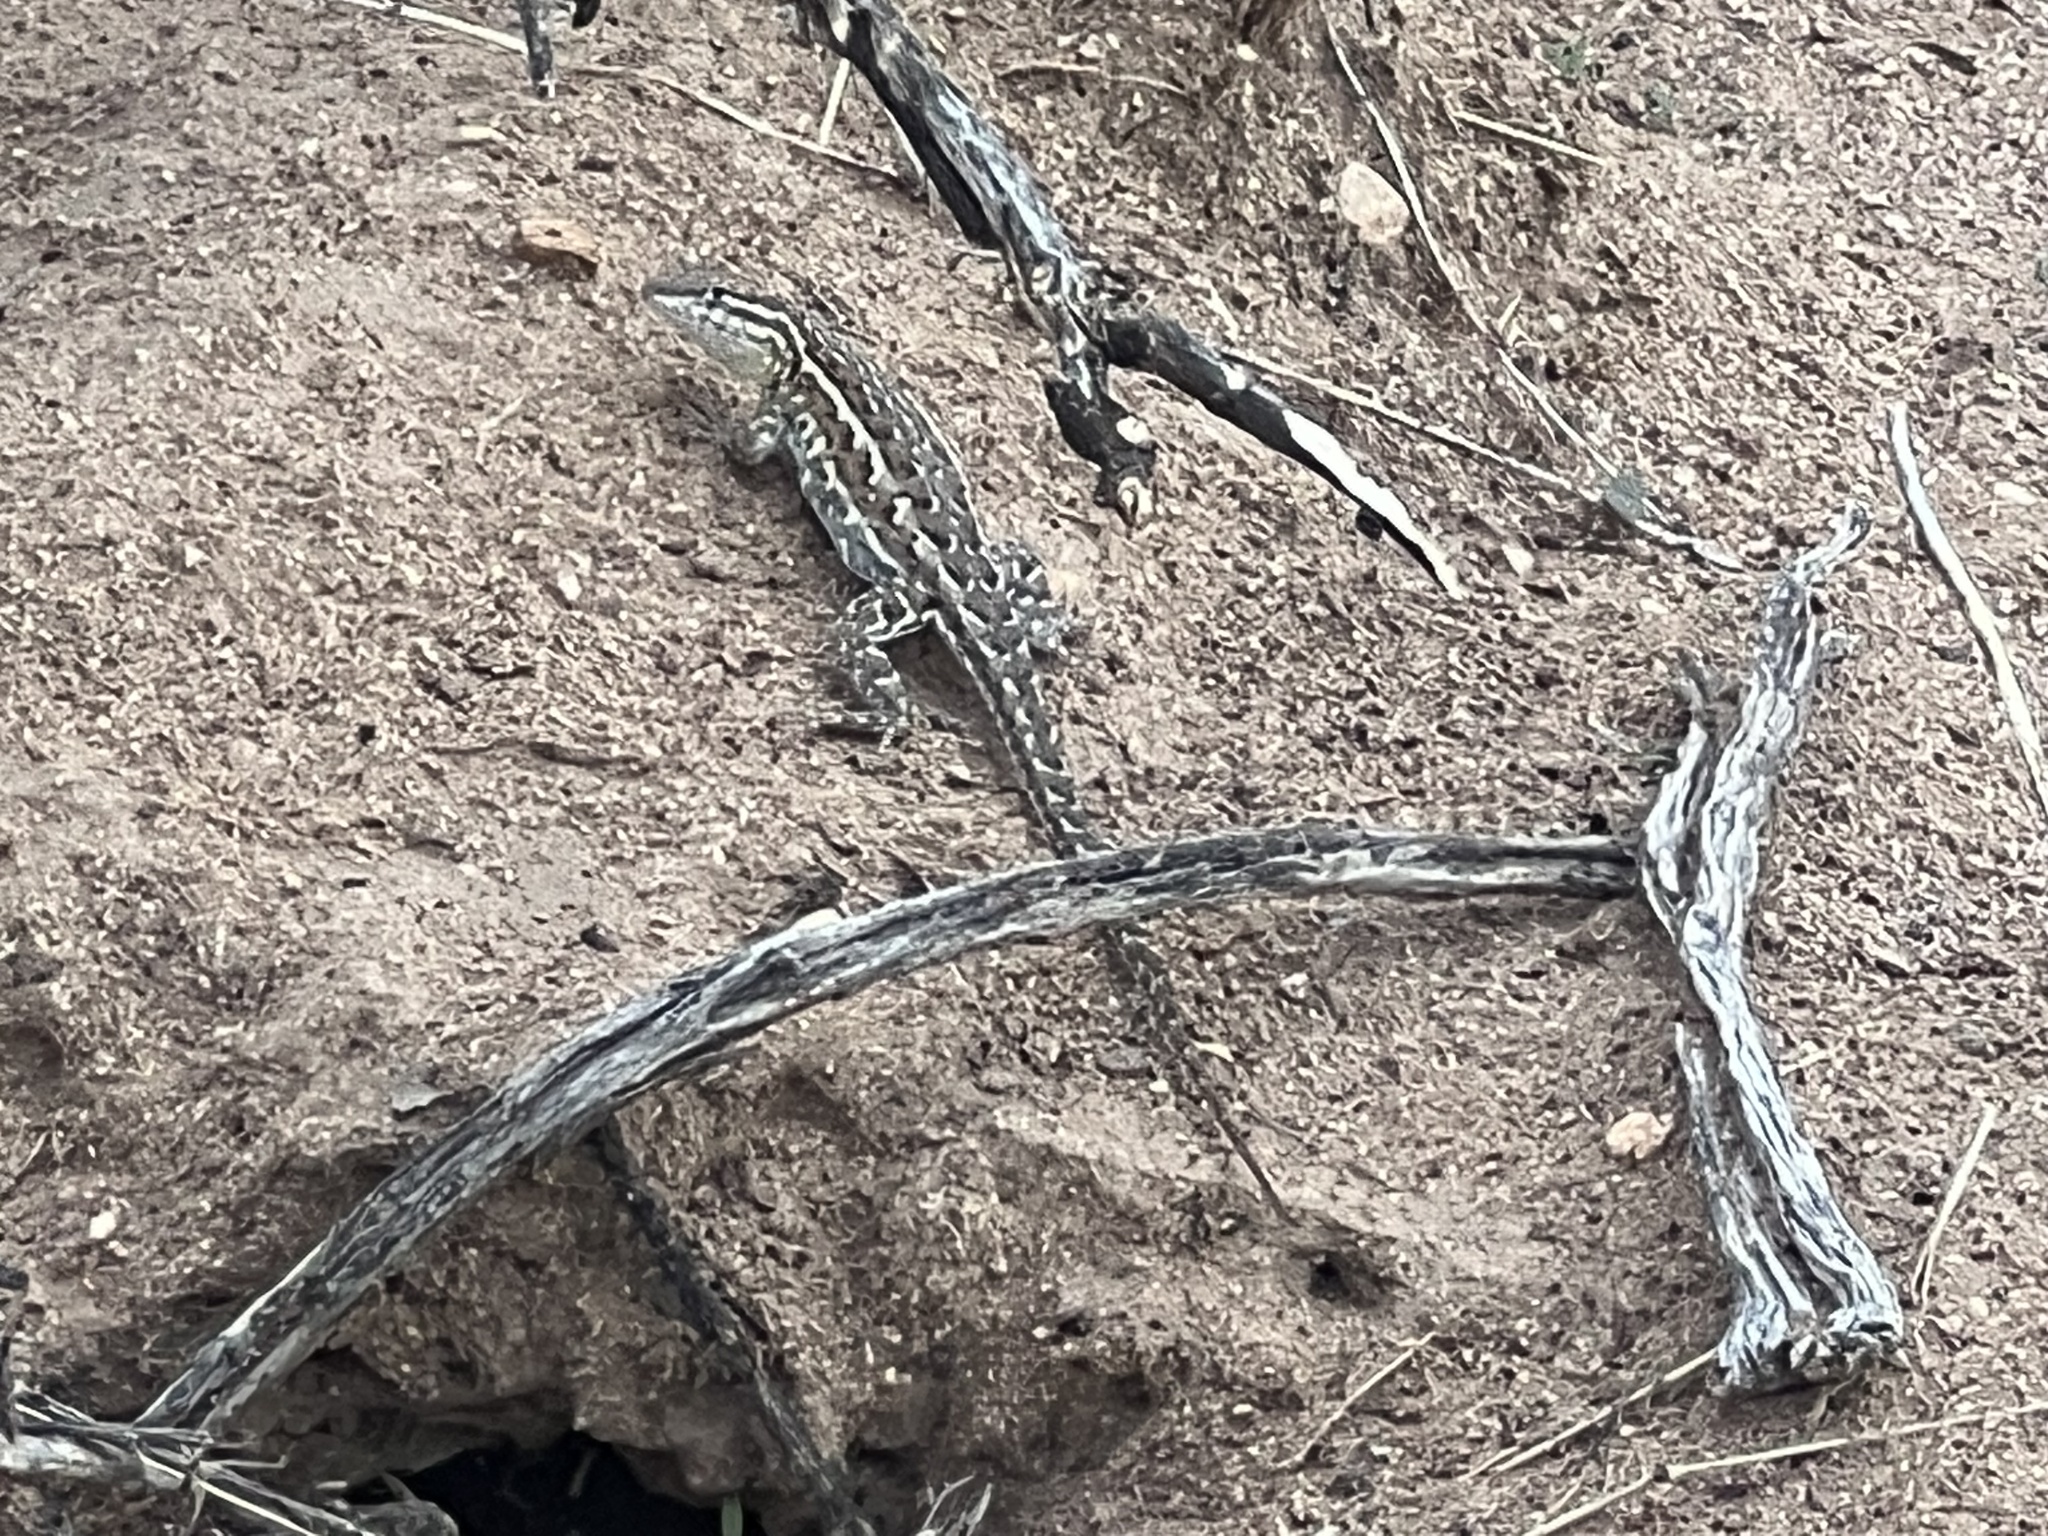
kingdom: Animalia
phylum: Chordata
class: Squamata
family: Phrynosomatidae
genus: Uta
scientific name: Uta stansburiana
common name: Side-blotched lizard
